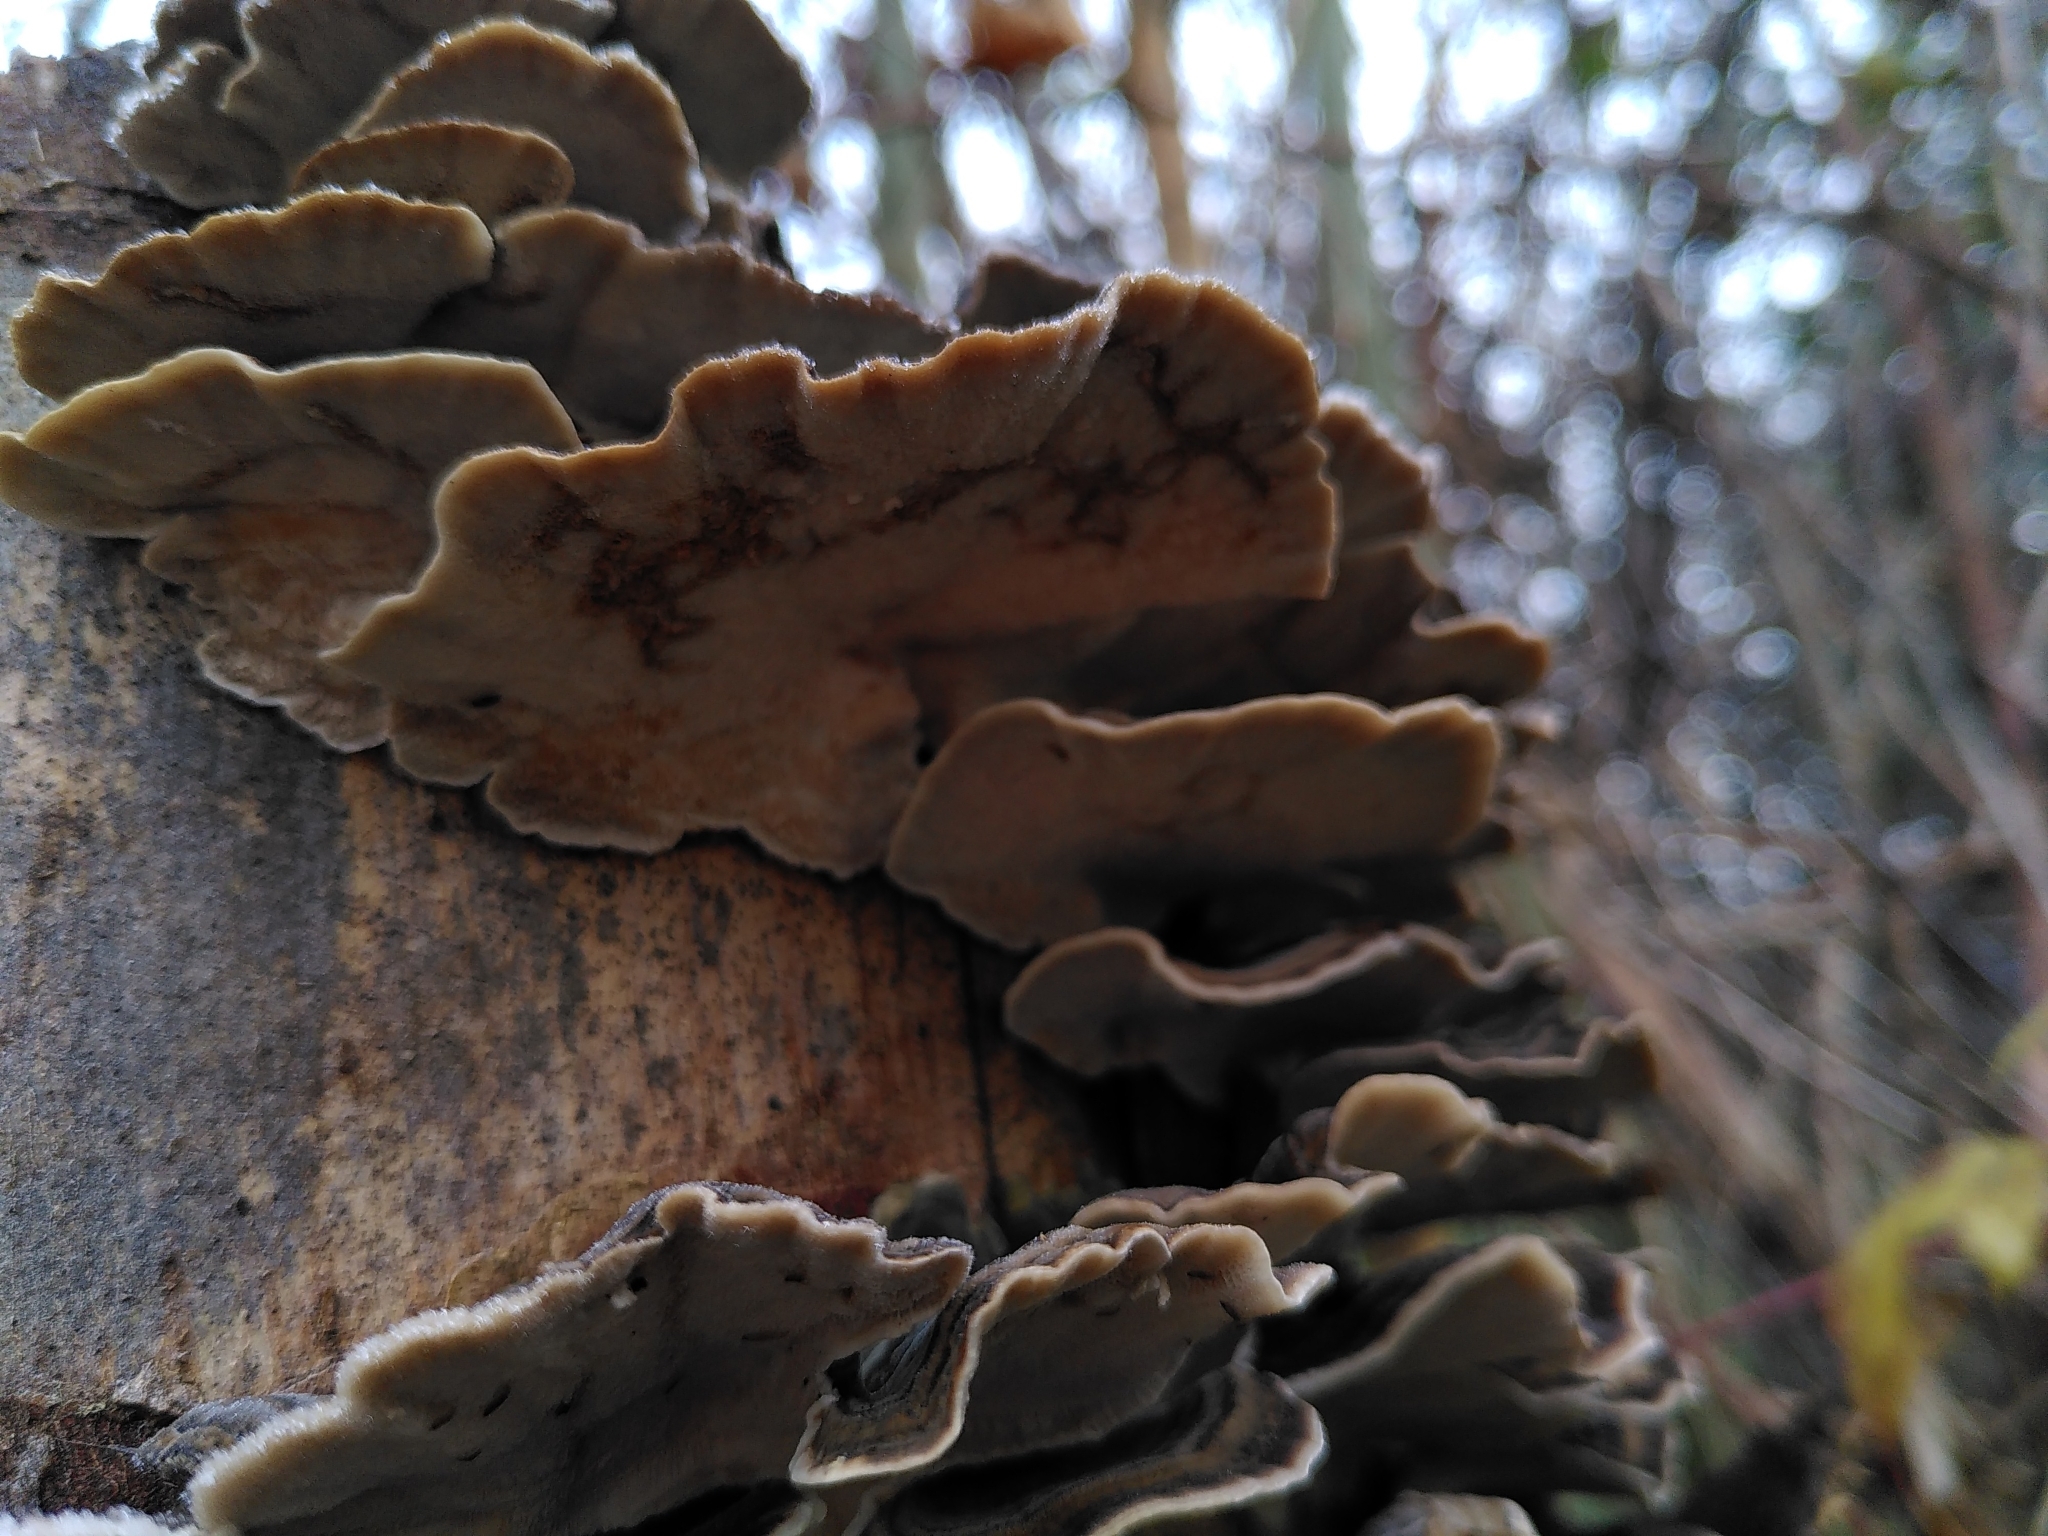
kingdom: Fungi
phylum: Basidiomycota
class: Agaricomycetes
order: Polyporales
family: Polyporaceae
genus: Trametes
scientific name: Trametes versicolor
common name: Turkeytail
